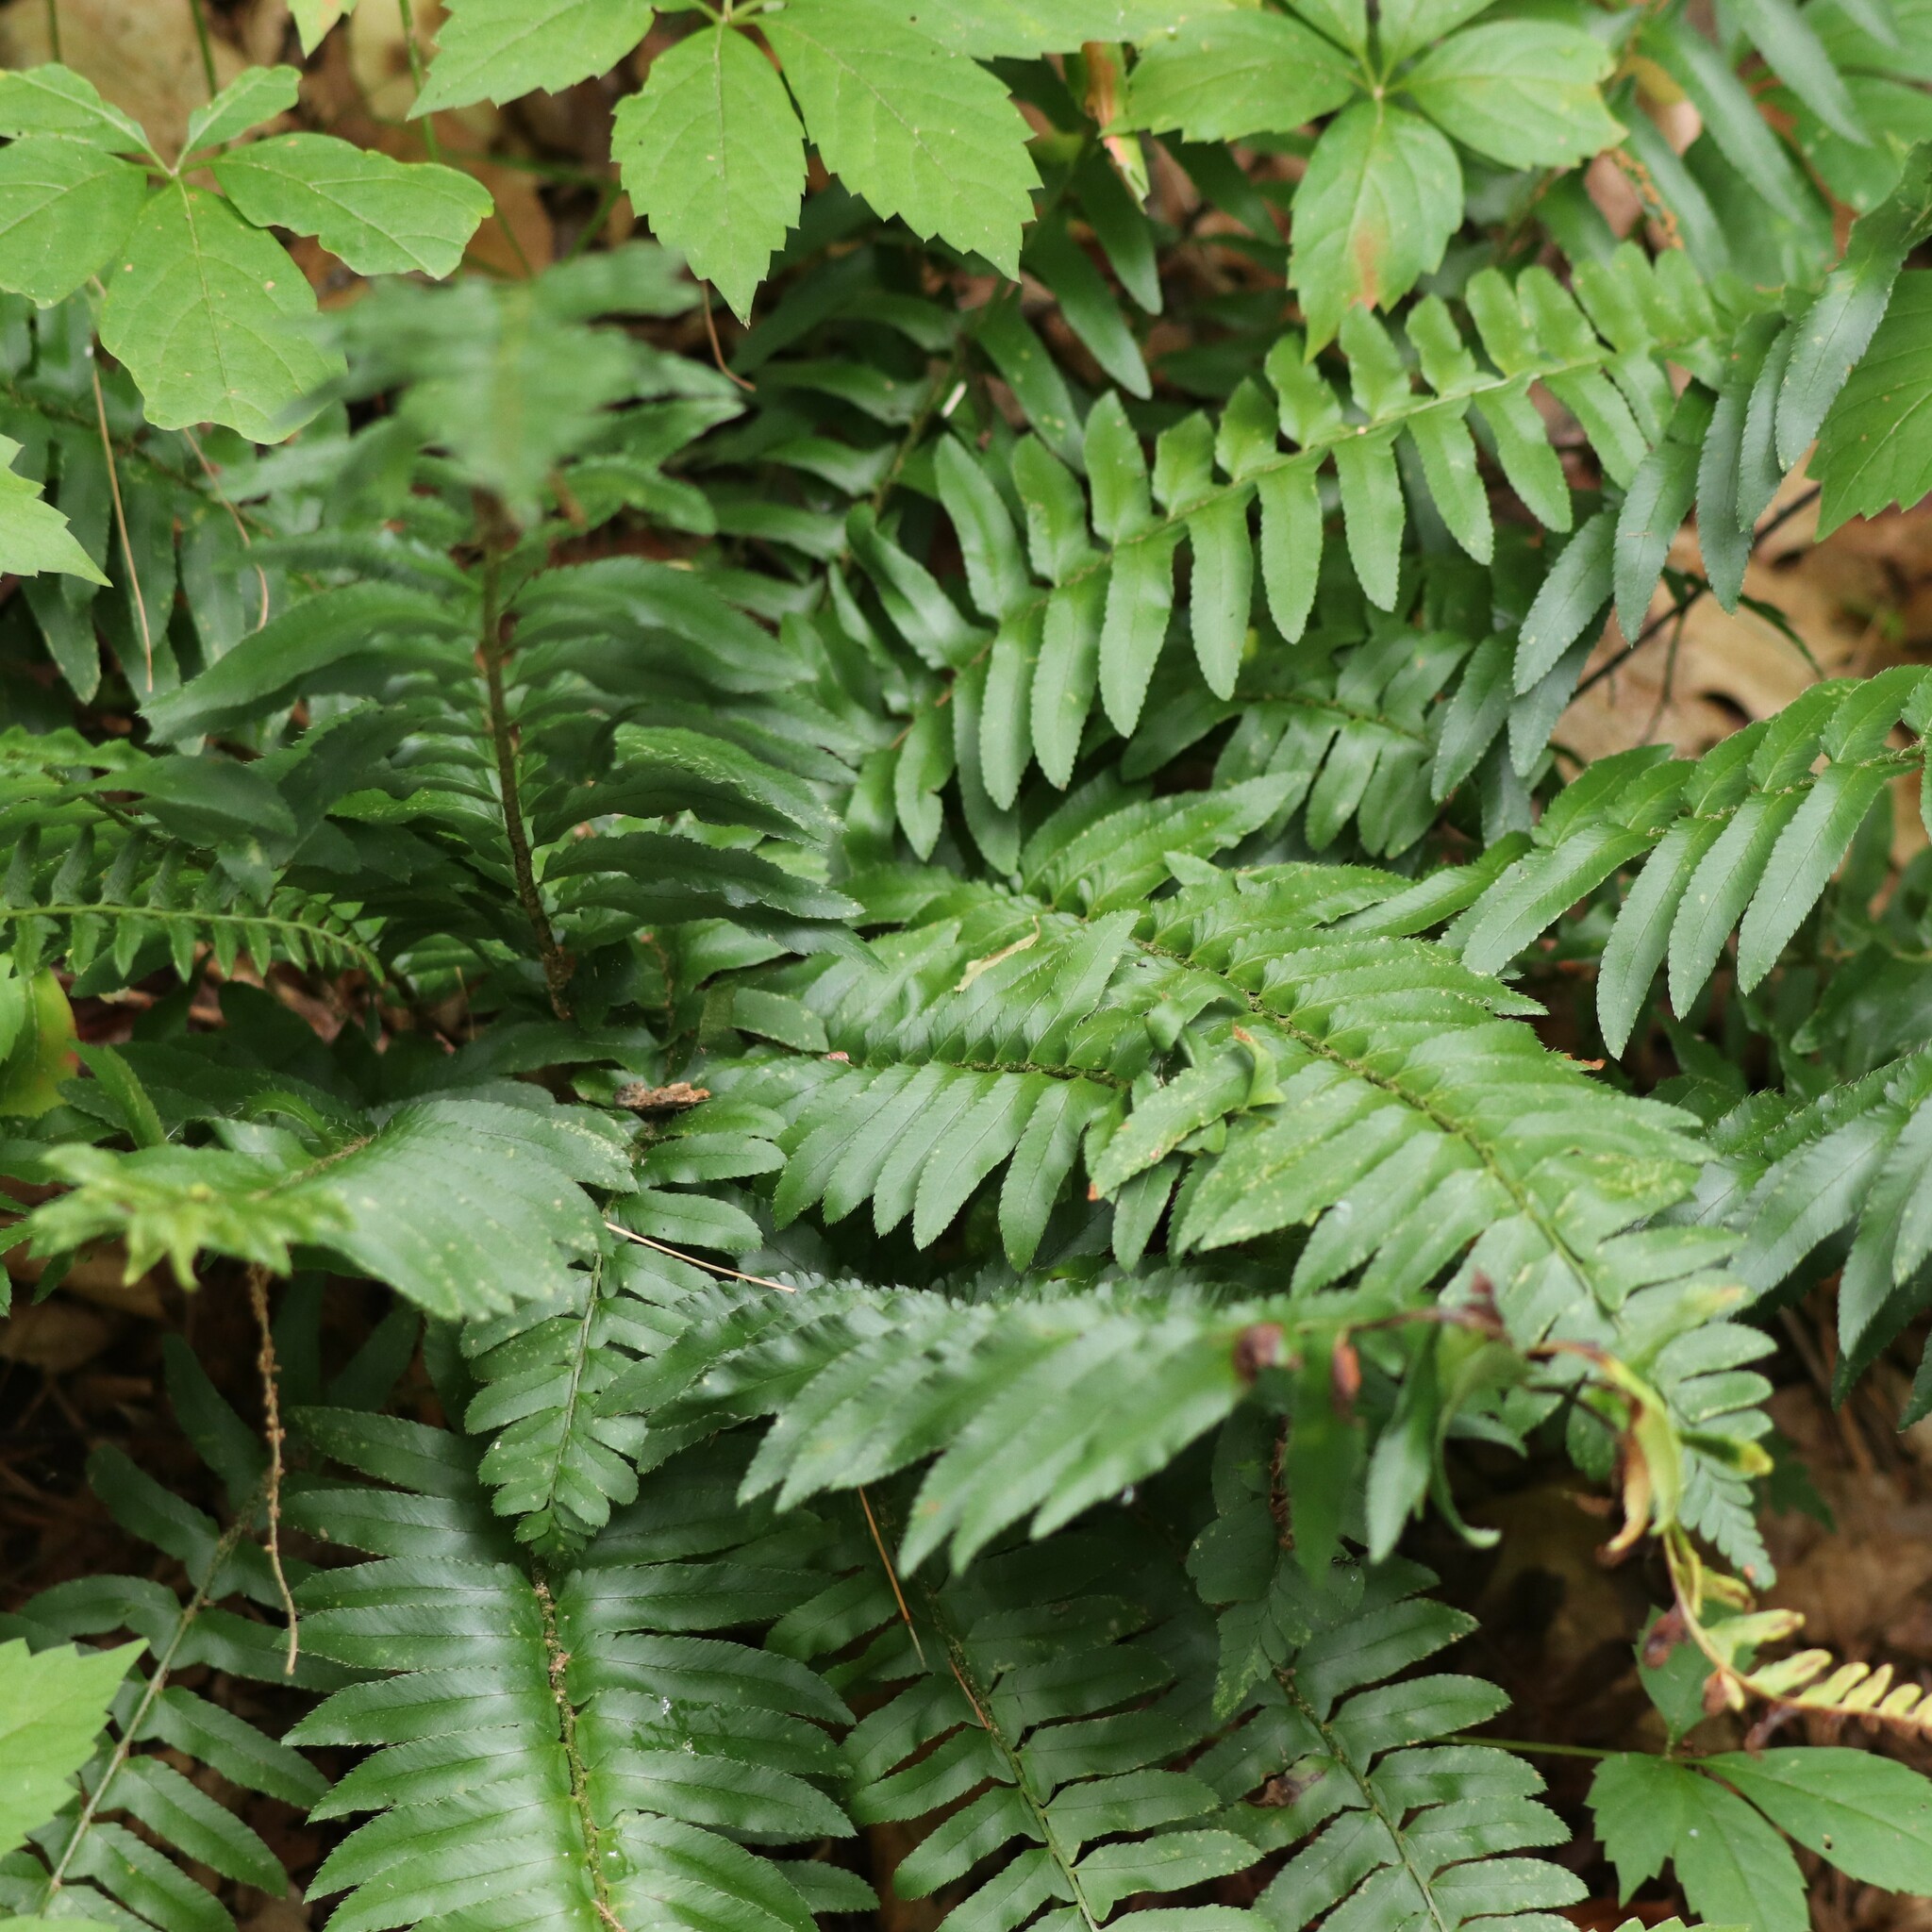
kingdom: Plantae
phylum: Tracheophyta
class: Polypodiopsida
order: Polypodiales
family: Dryopteridaceae
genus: Polystichum
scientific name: Polystichum acrostichoides
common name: Christmas fern
